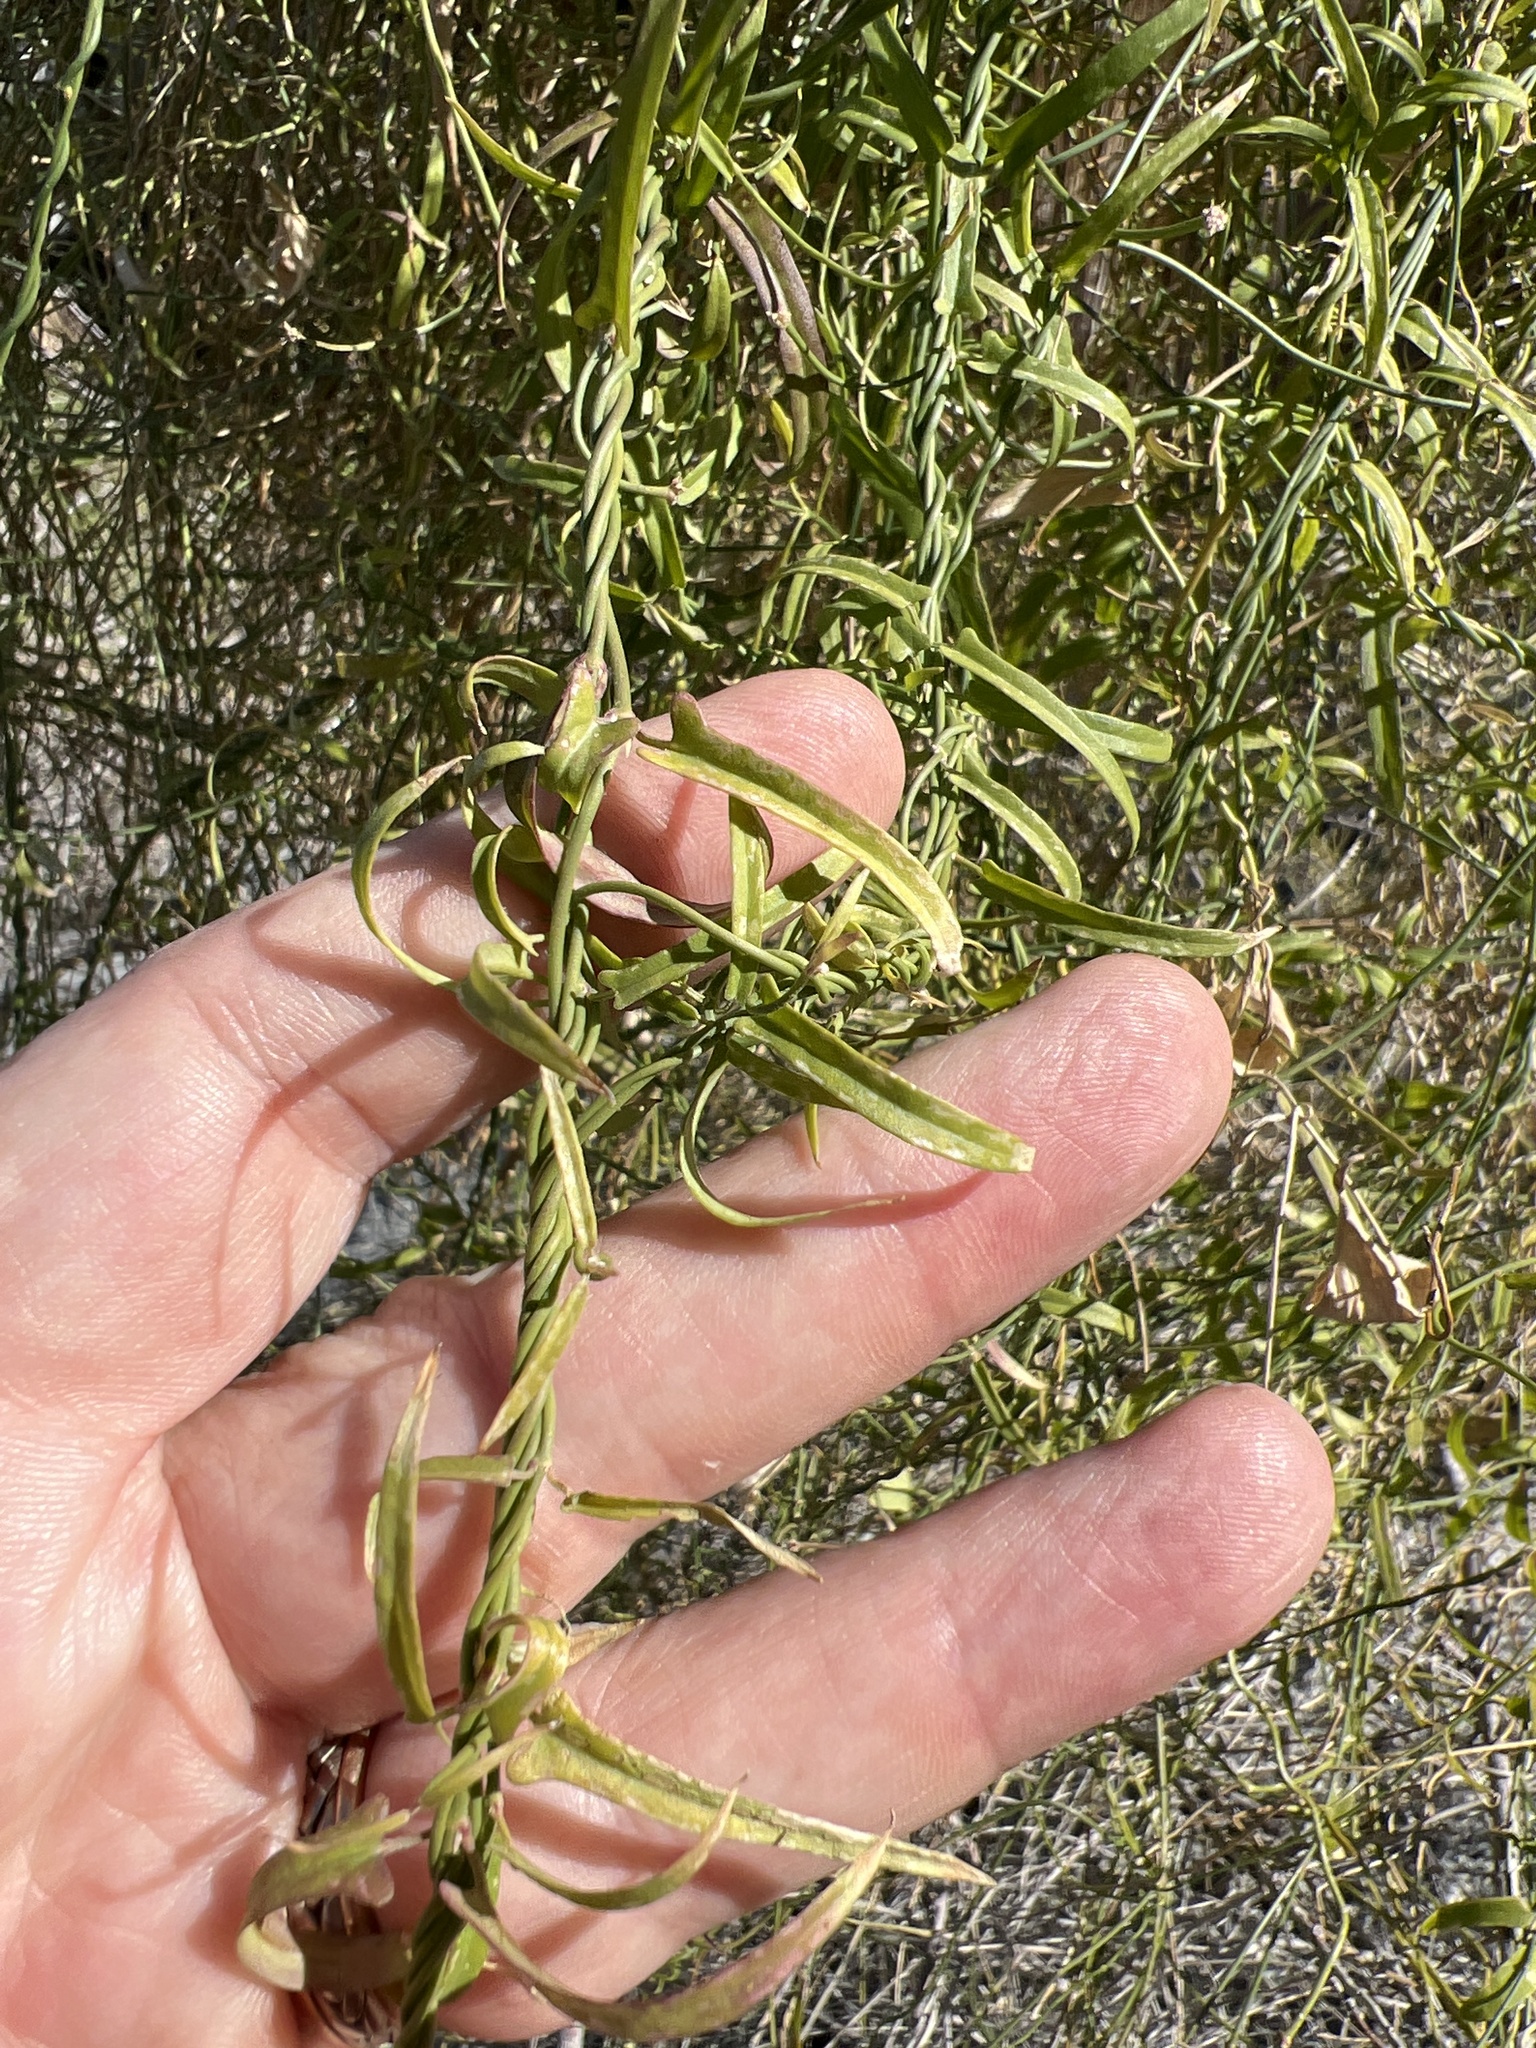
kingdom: Plantae
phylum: Tracheophyta
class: Magnoliopsida
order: Gentianales
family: Apocynaceae
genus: Funastrum
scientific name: Funastrum heterophyllum
